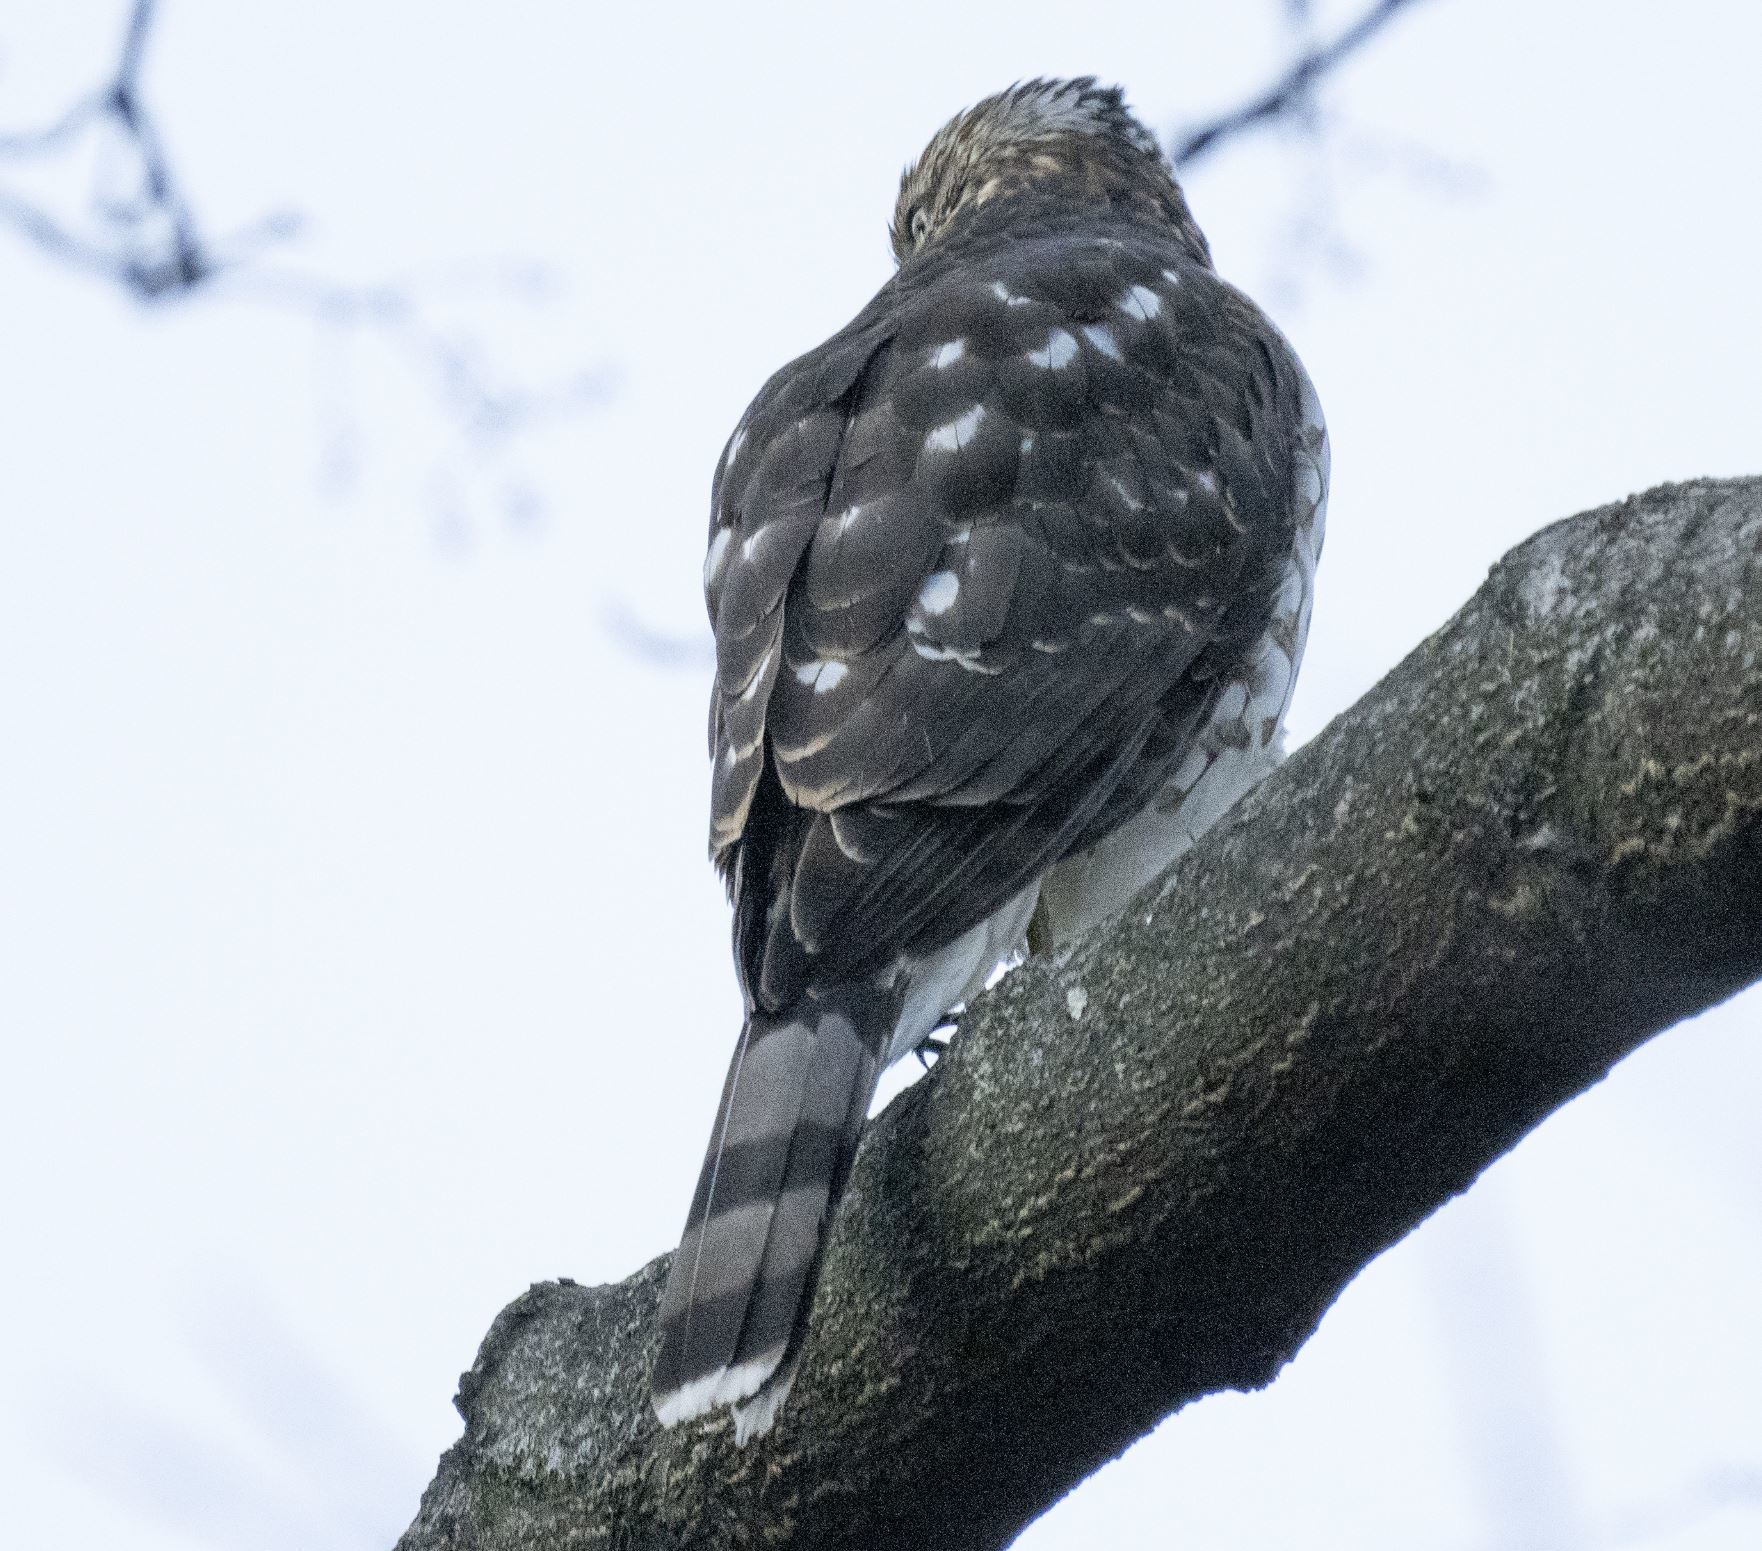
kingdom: Animalia
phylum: Chordata
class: Aves
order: Accipitriformes
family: Accipitridae
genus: Accipiter
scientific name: Accipiter cooperii
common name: Cooper's hawk
